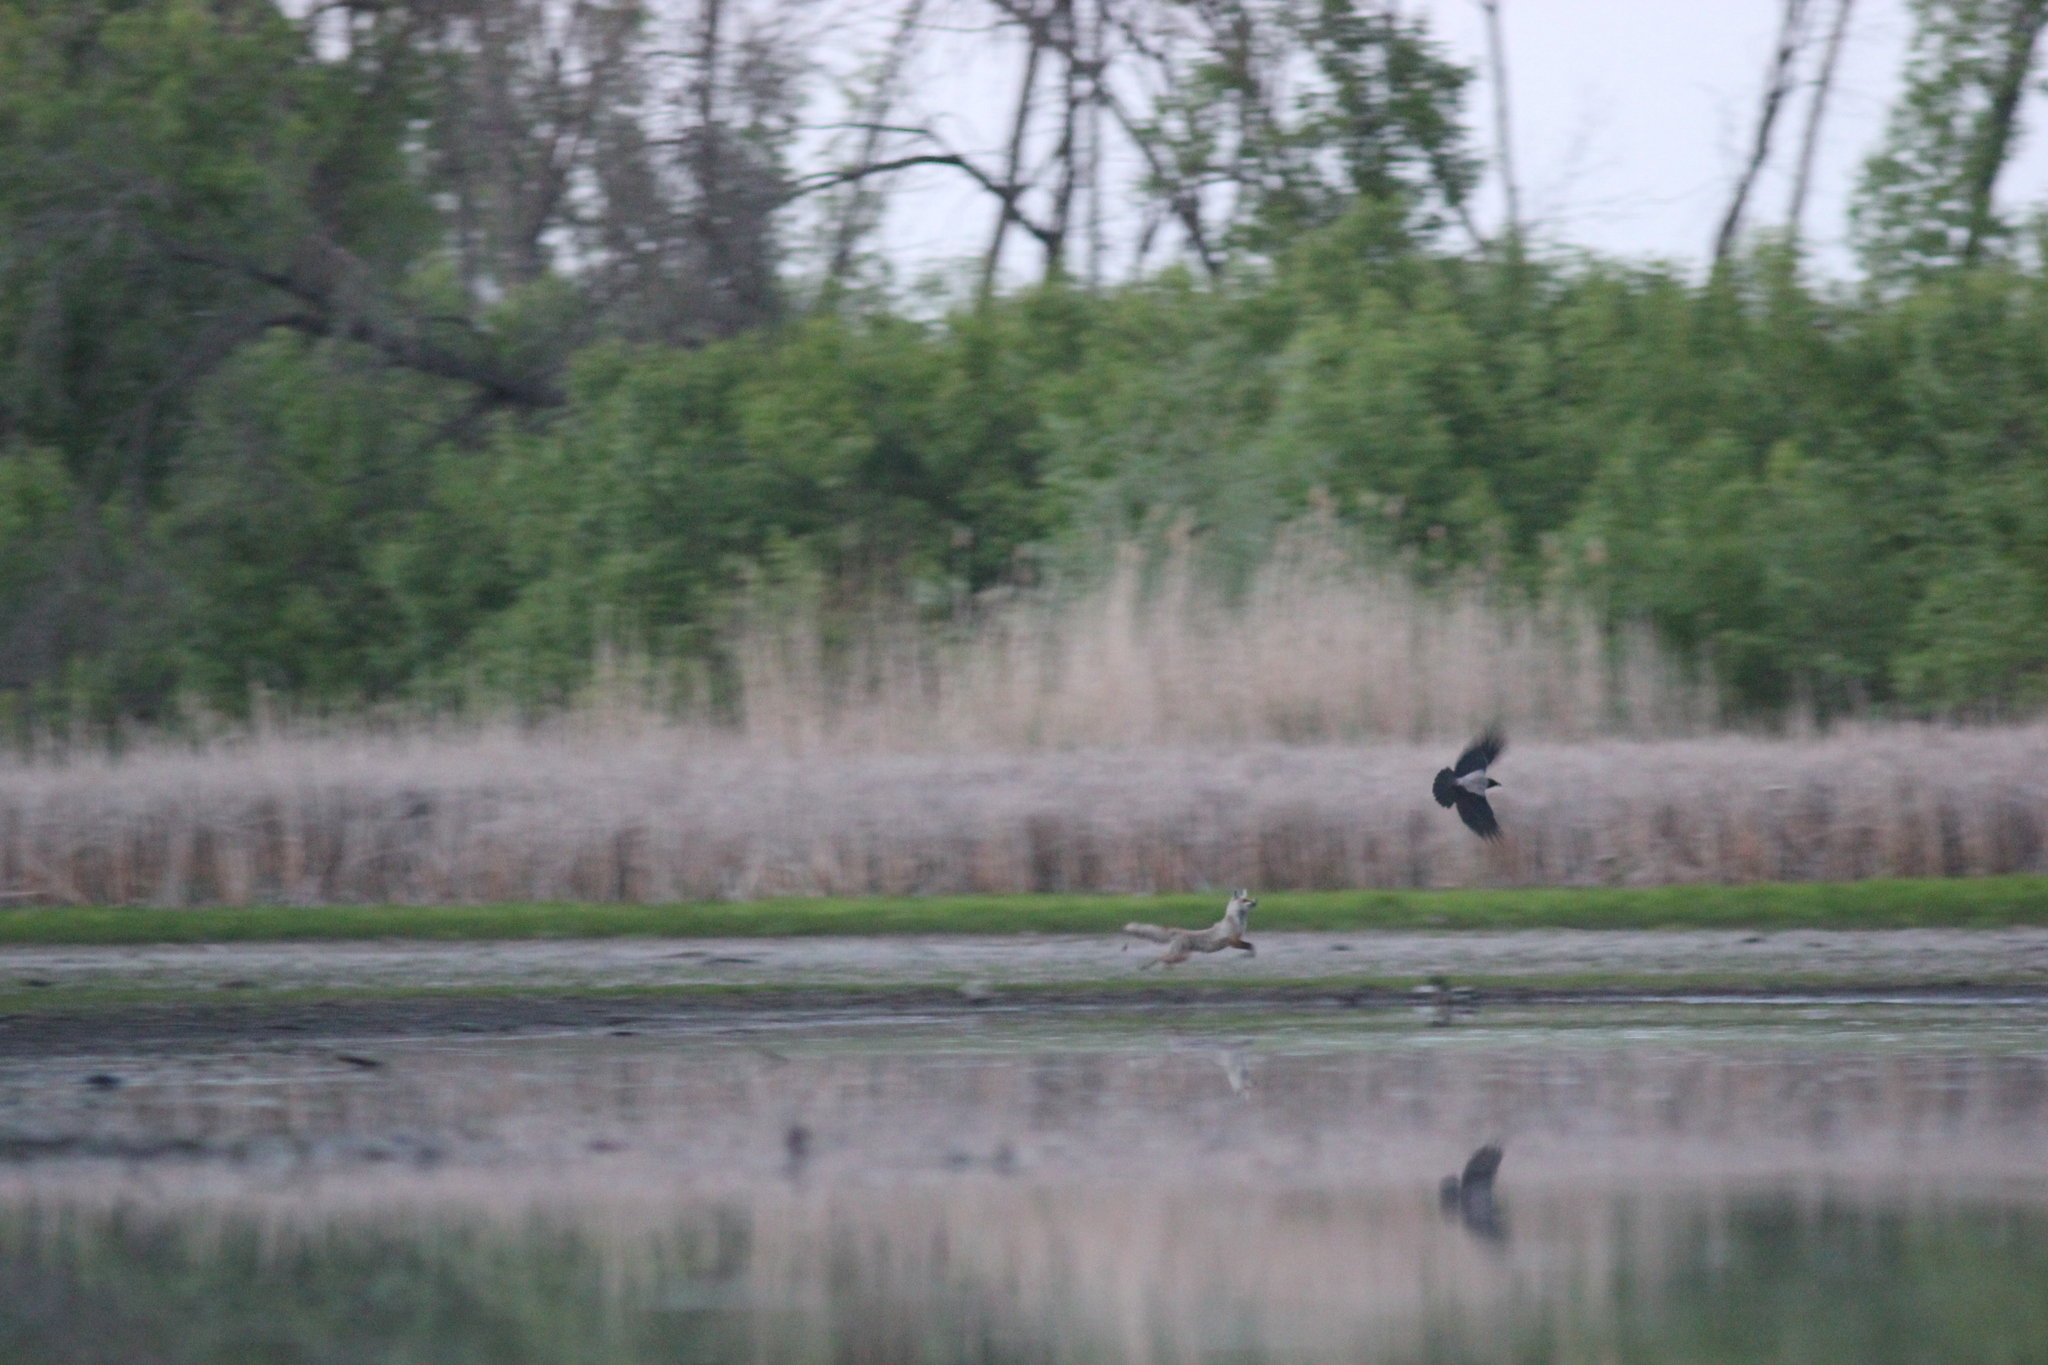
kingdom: Animalia
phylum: Chordata
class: Mammalia
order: Carnivora
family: Canidae
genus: Vulpes
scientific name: Vulpes vulpes
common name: Red fox
